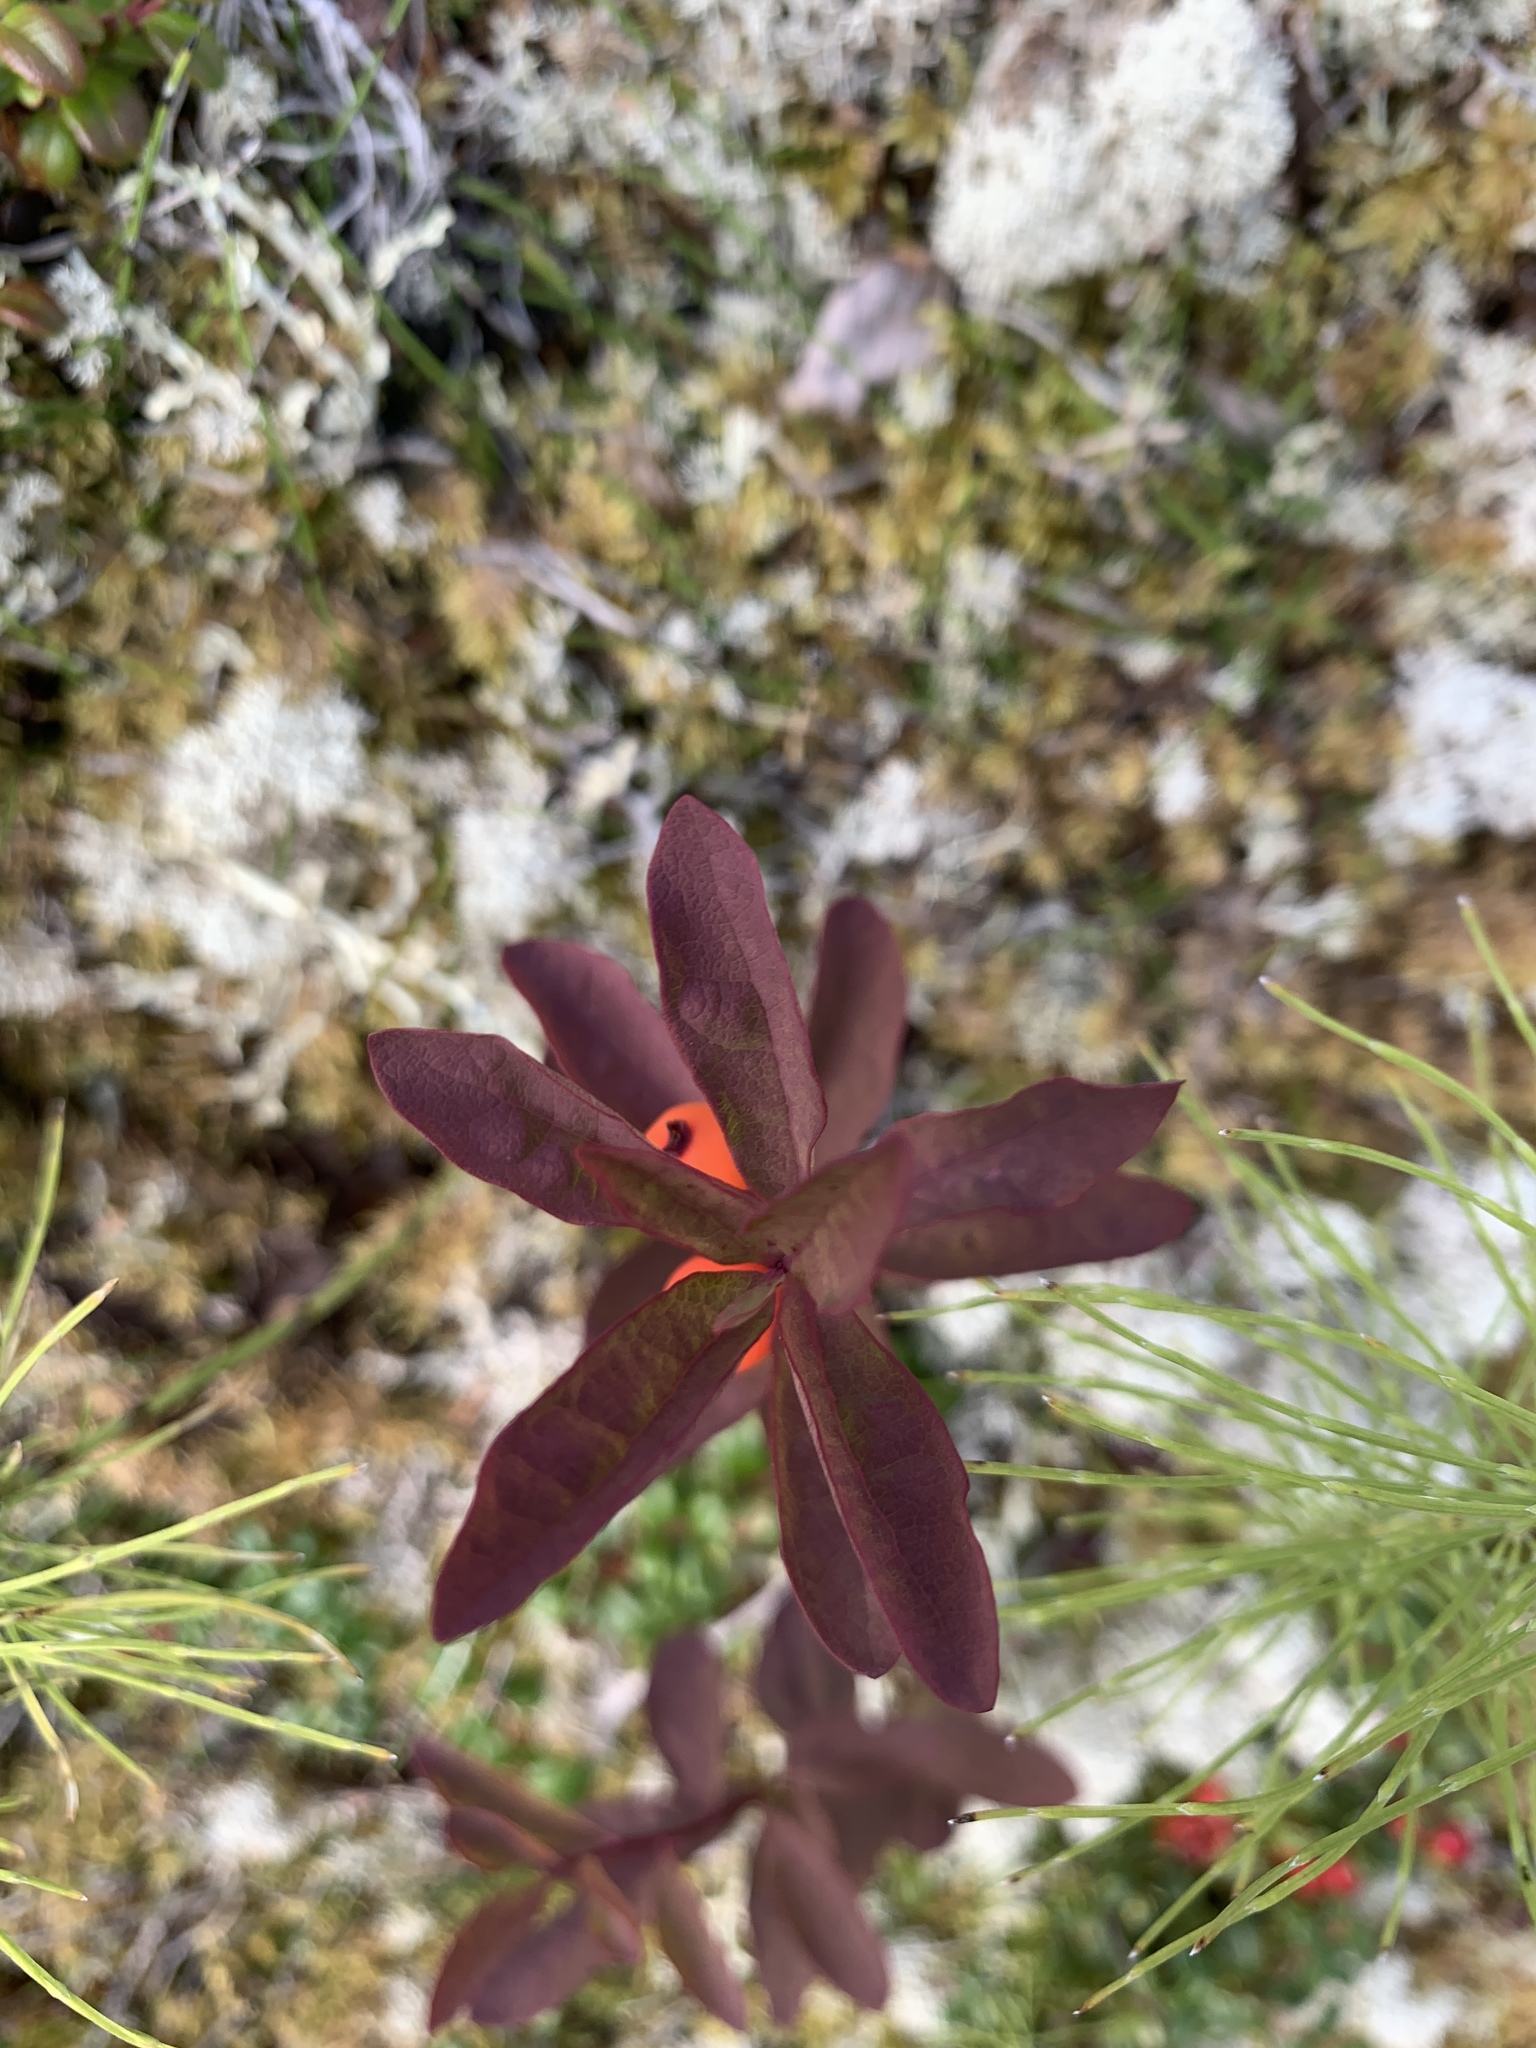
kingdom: Plantae
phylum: Tracheophyta
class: Magnoliopsida
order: Santalales
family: Comandraceae
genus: Geocaulon
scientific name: Geocaulon lividum
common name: Earthberry
